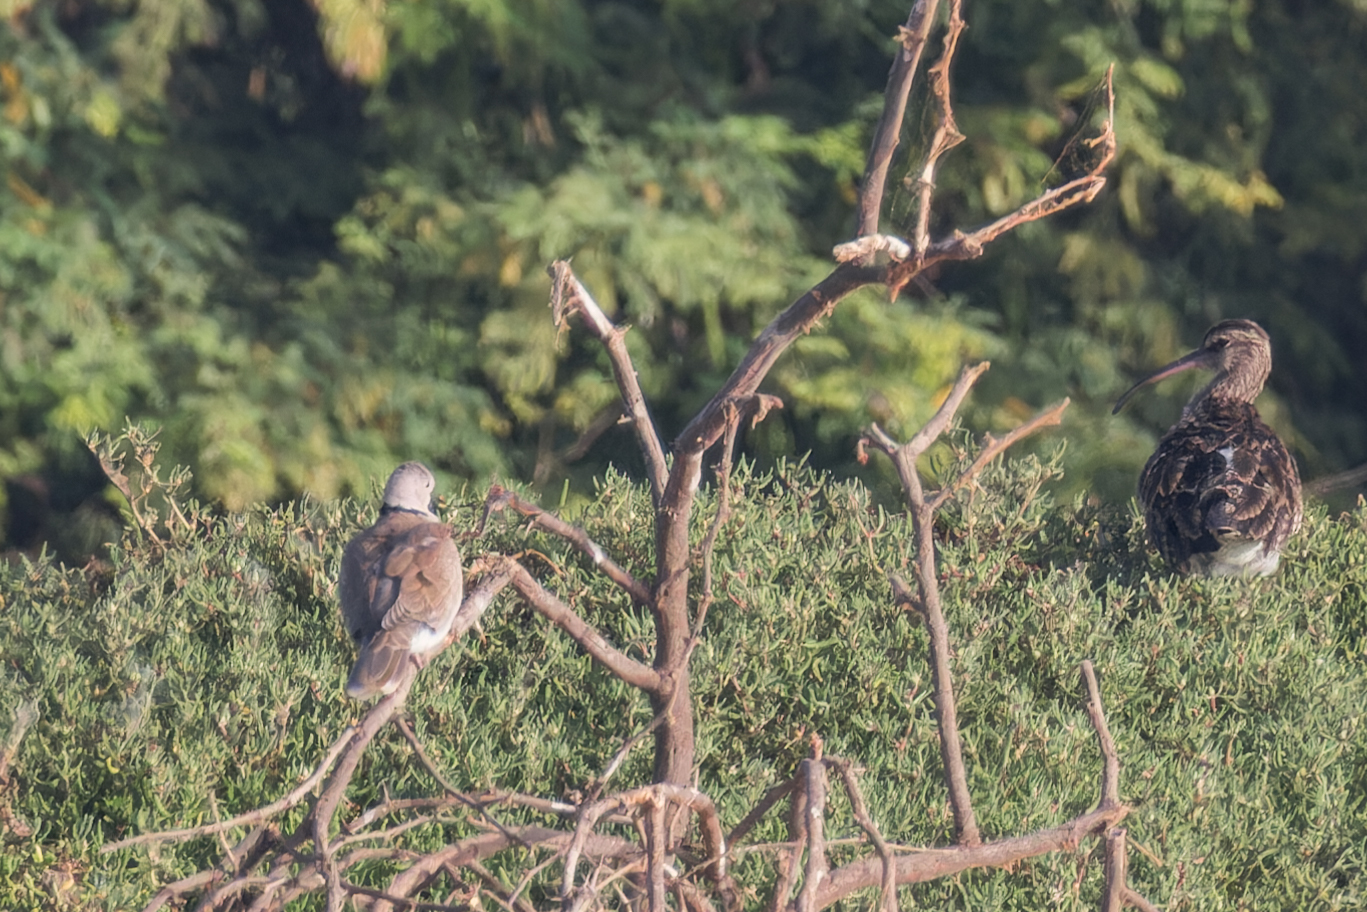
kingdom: Animalia
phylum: Chordata
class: Aves
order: Columbiformes
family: Columbidae
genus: Streptopelia
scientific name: Streptopelia decaocto
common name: Eurasian collared dove
